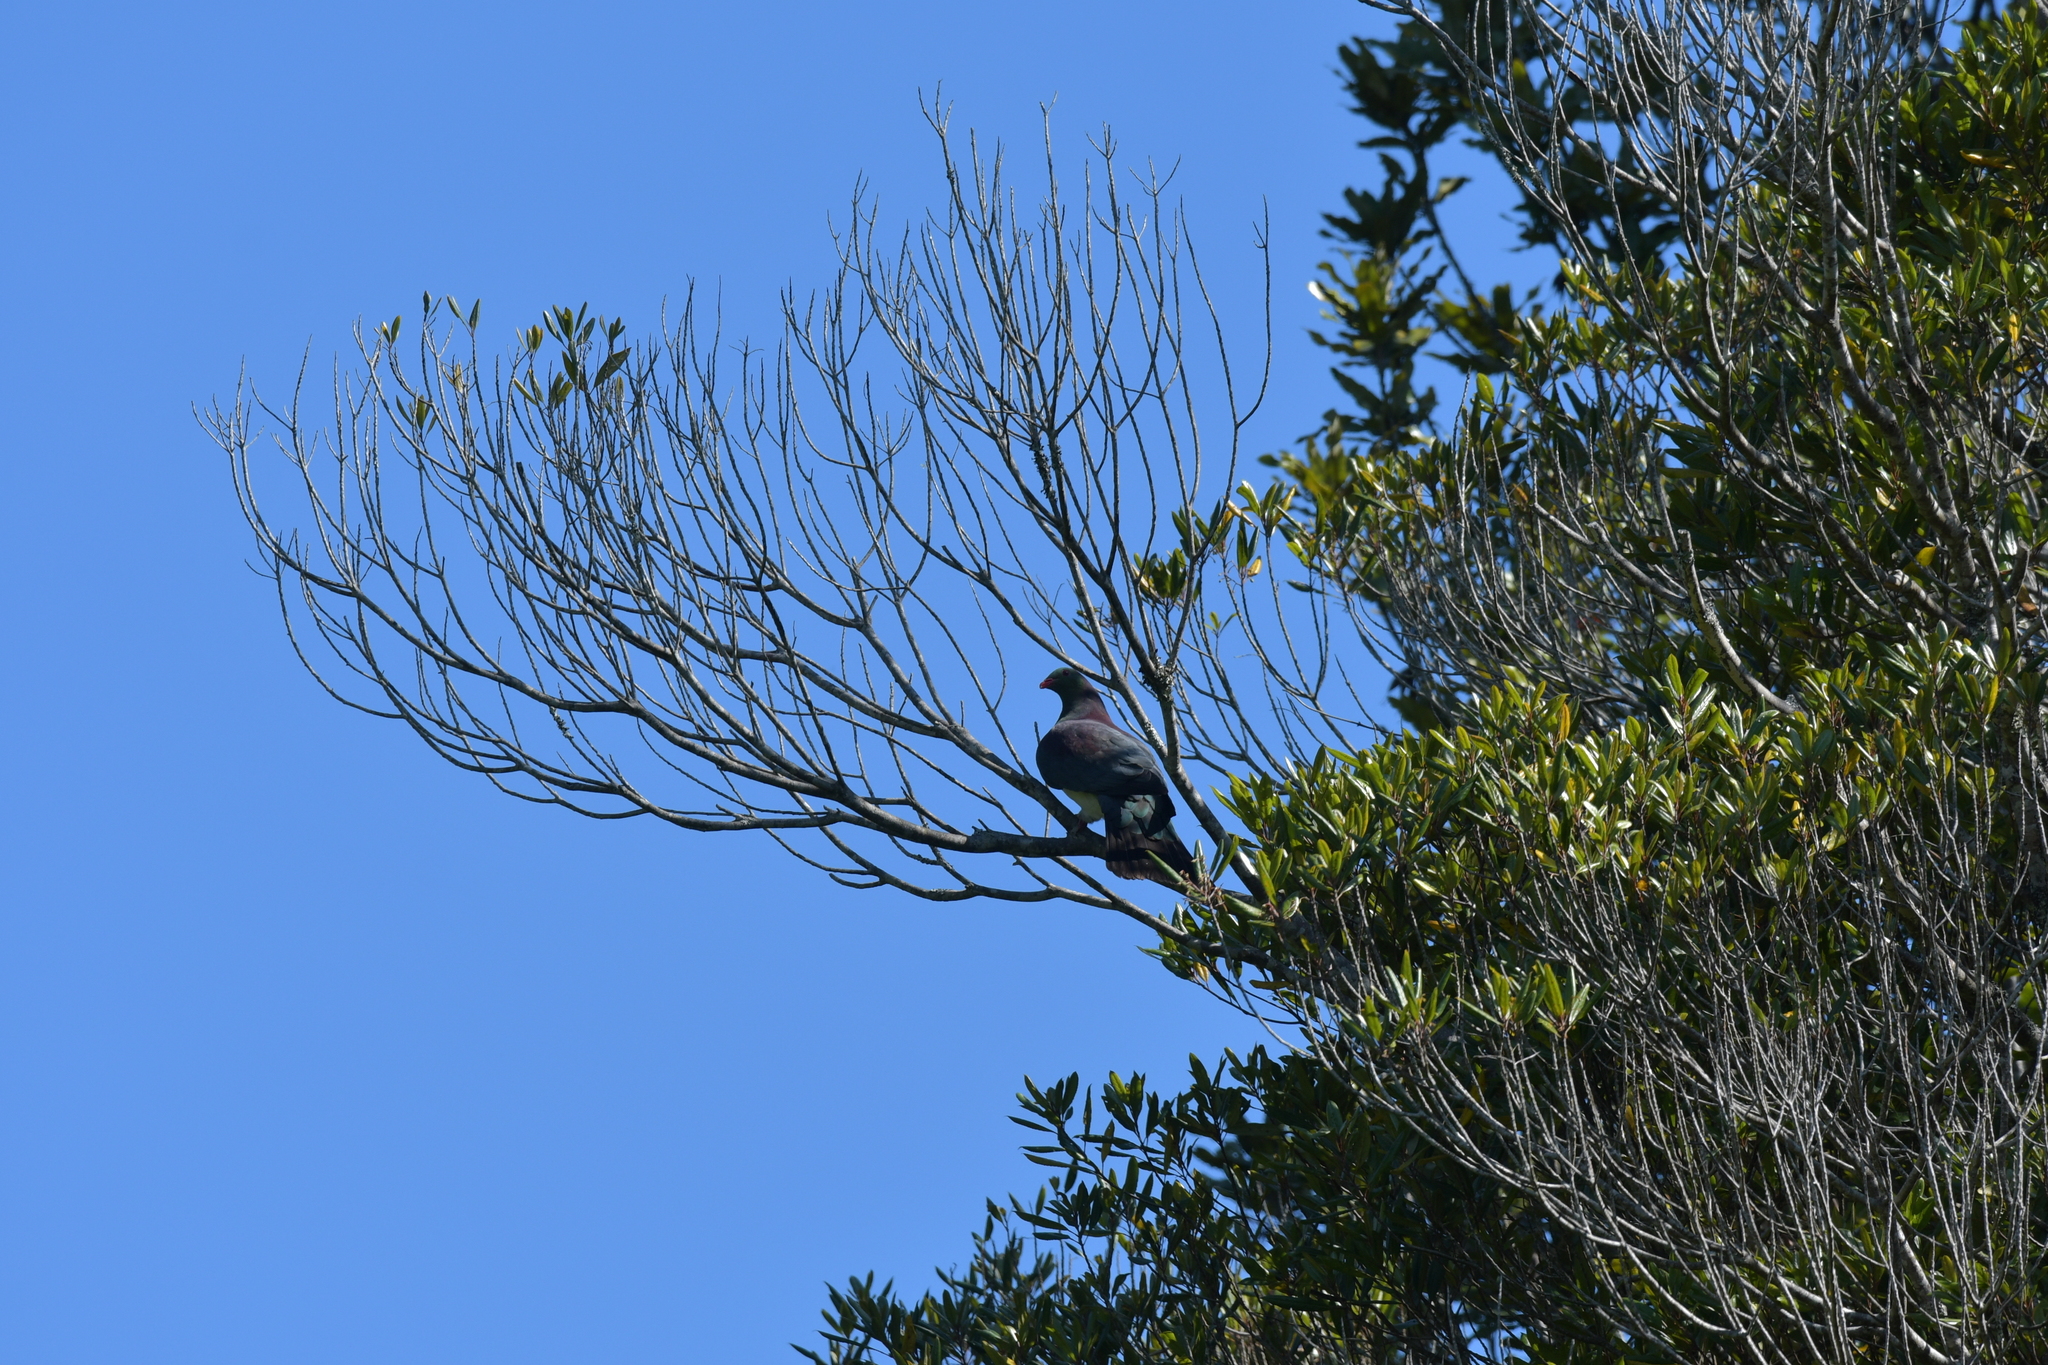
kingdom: Animalia
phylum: Chordata
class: Aves
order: Columbiformes
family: Columbidae
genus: Hemiphaga
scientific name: Hemiphaga novaeseelandiae
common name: New zealand pigeon
